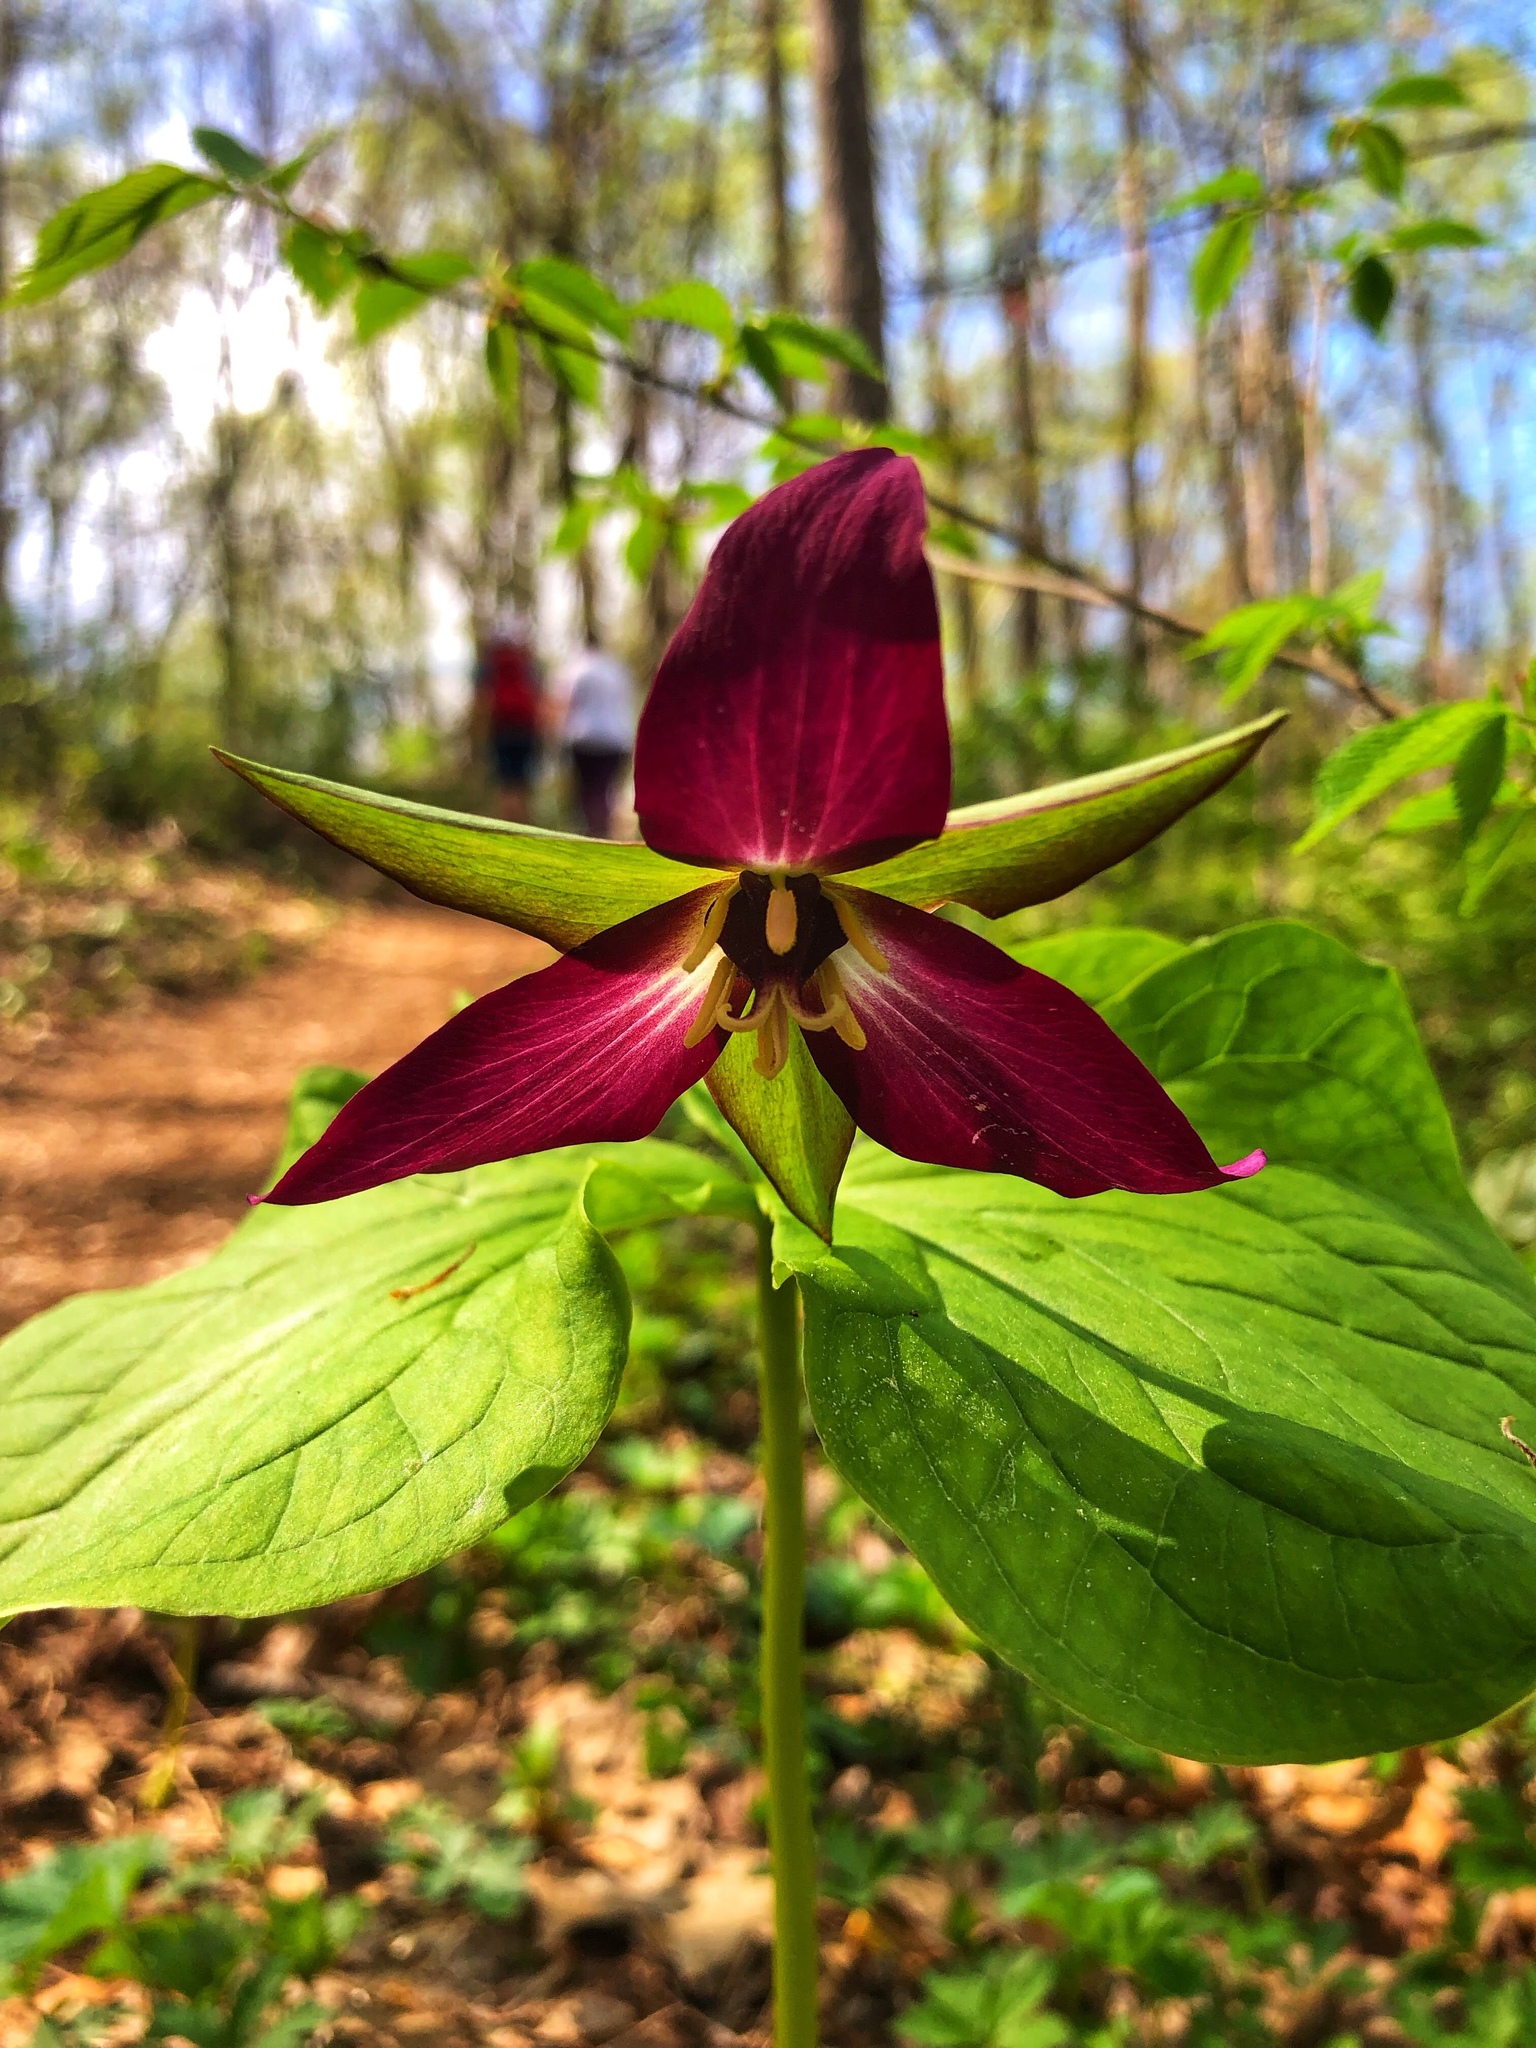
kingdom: Plantae
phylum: Tracheophyta
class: Liliopsida
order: Liliales
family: Melanthiaceae
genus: Trillium
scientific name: Trillium erectum
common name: Purple trillium
